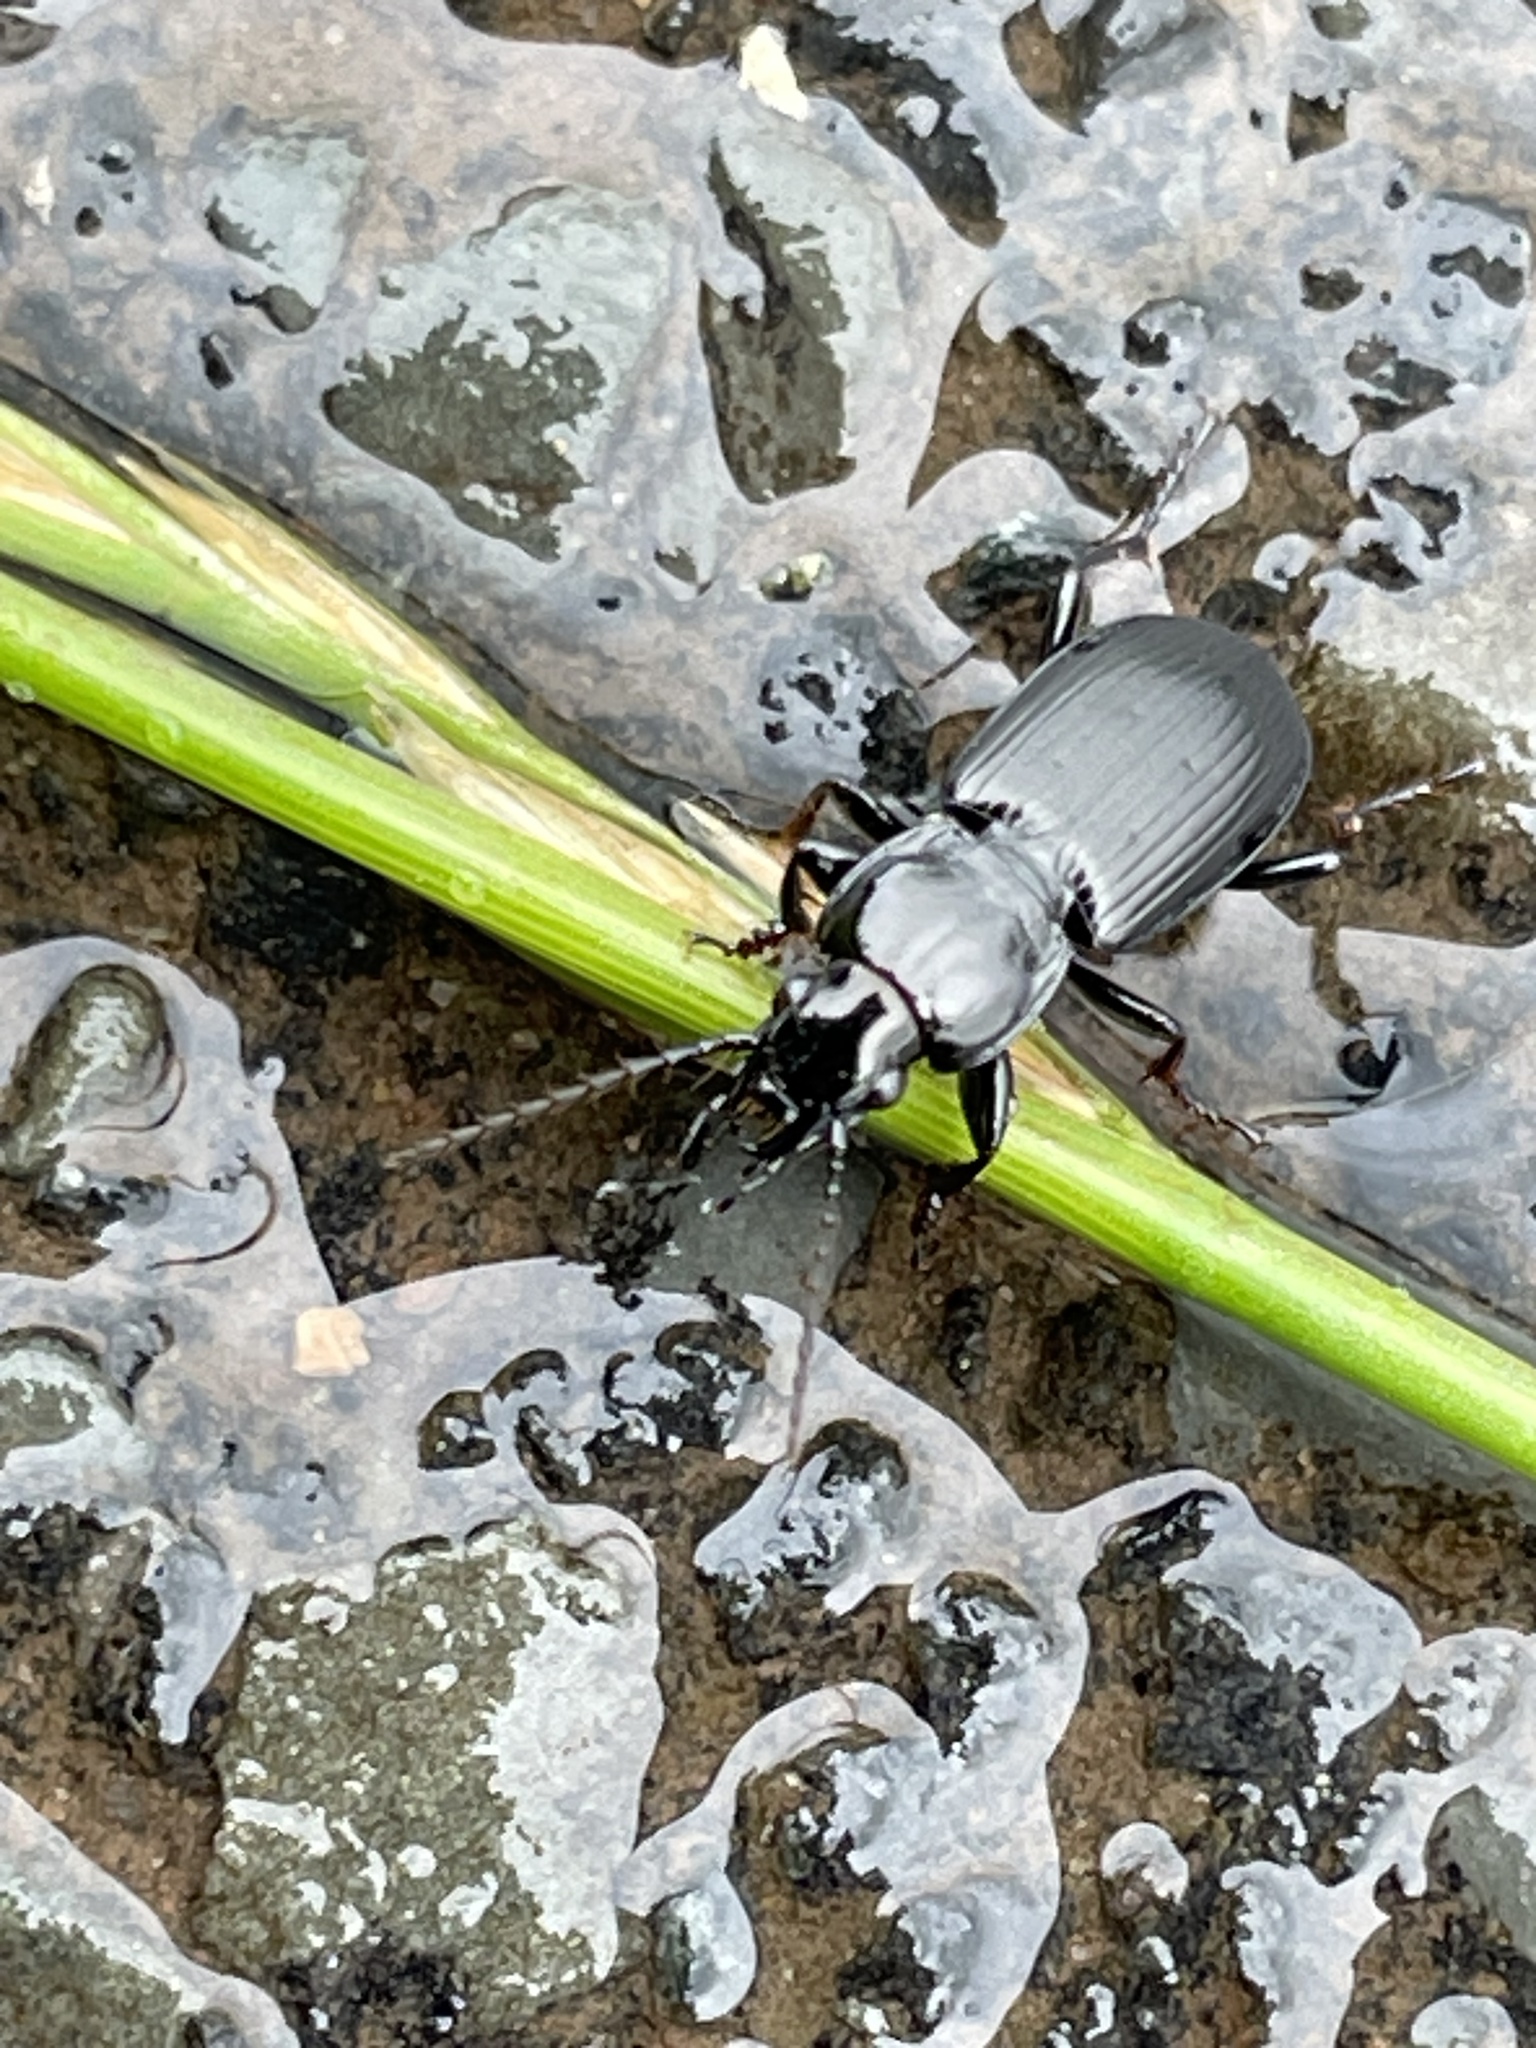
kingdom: Animalia
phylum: Arthropoda
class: Insecta
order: Coleoptera
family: Carabidae
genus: Pterostichus
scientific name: Pterostichus melanarius
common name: European dark harp ground beetle
